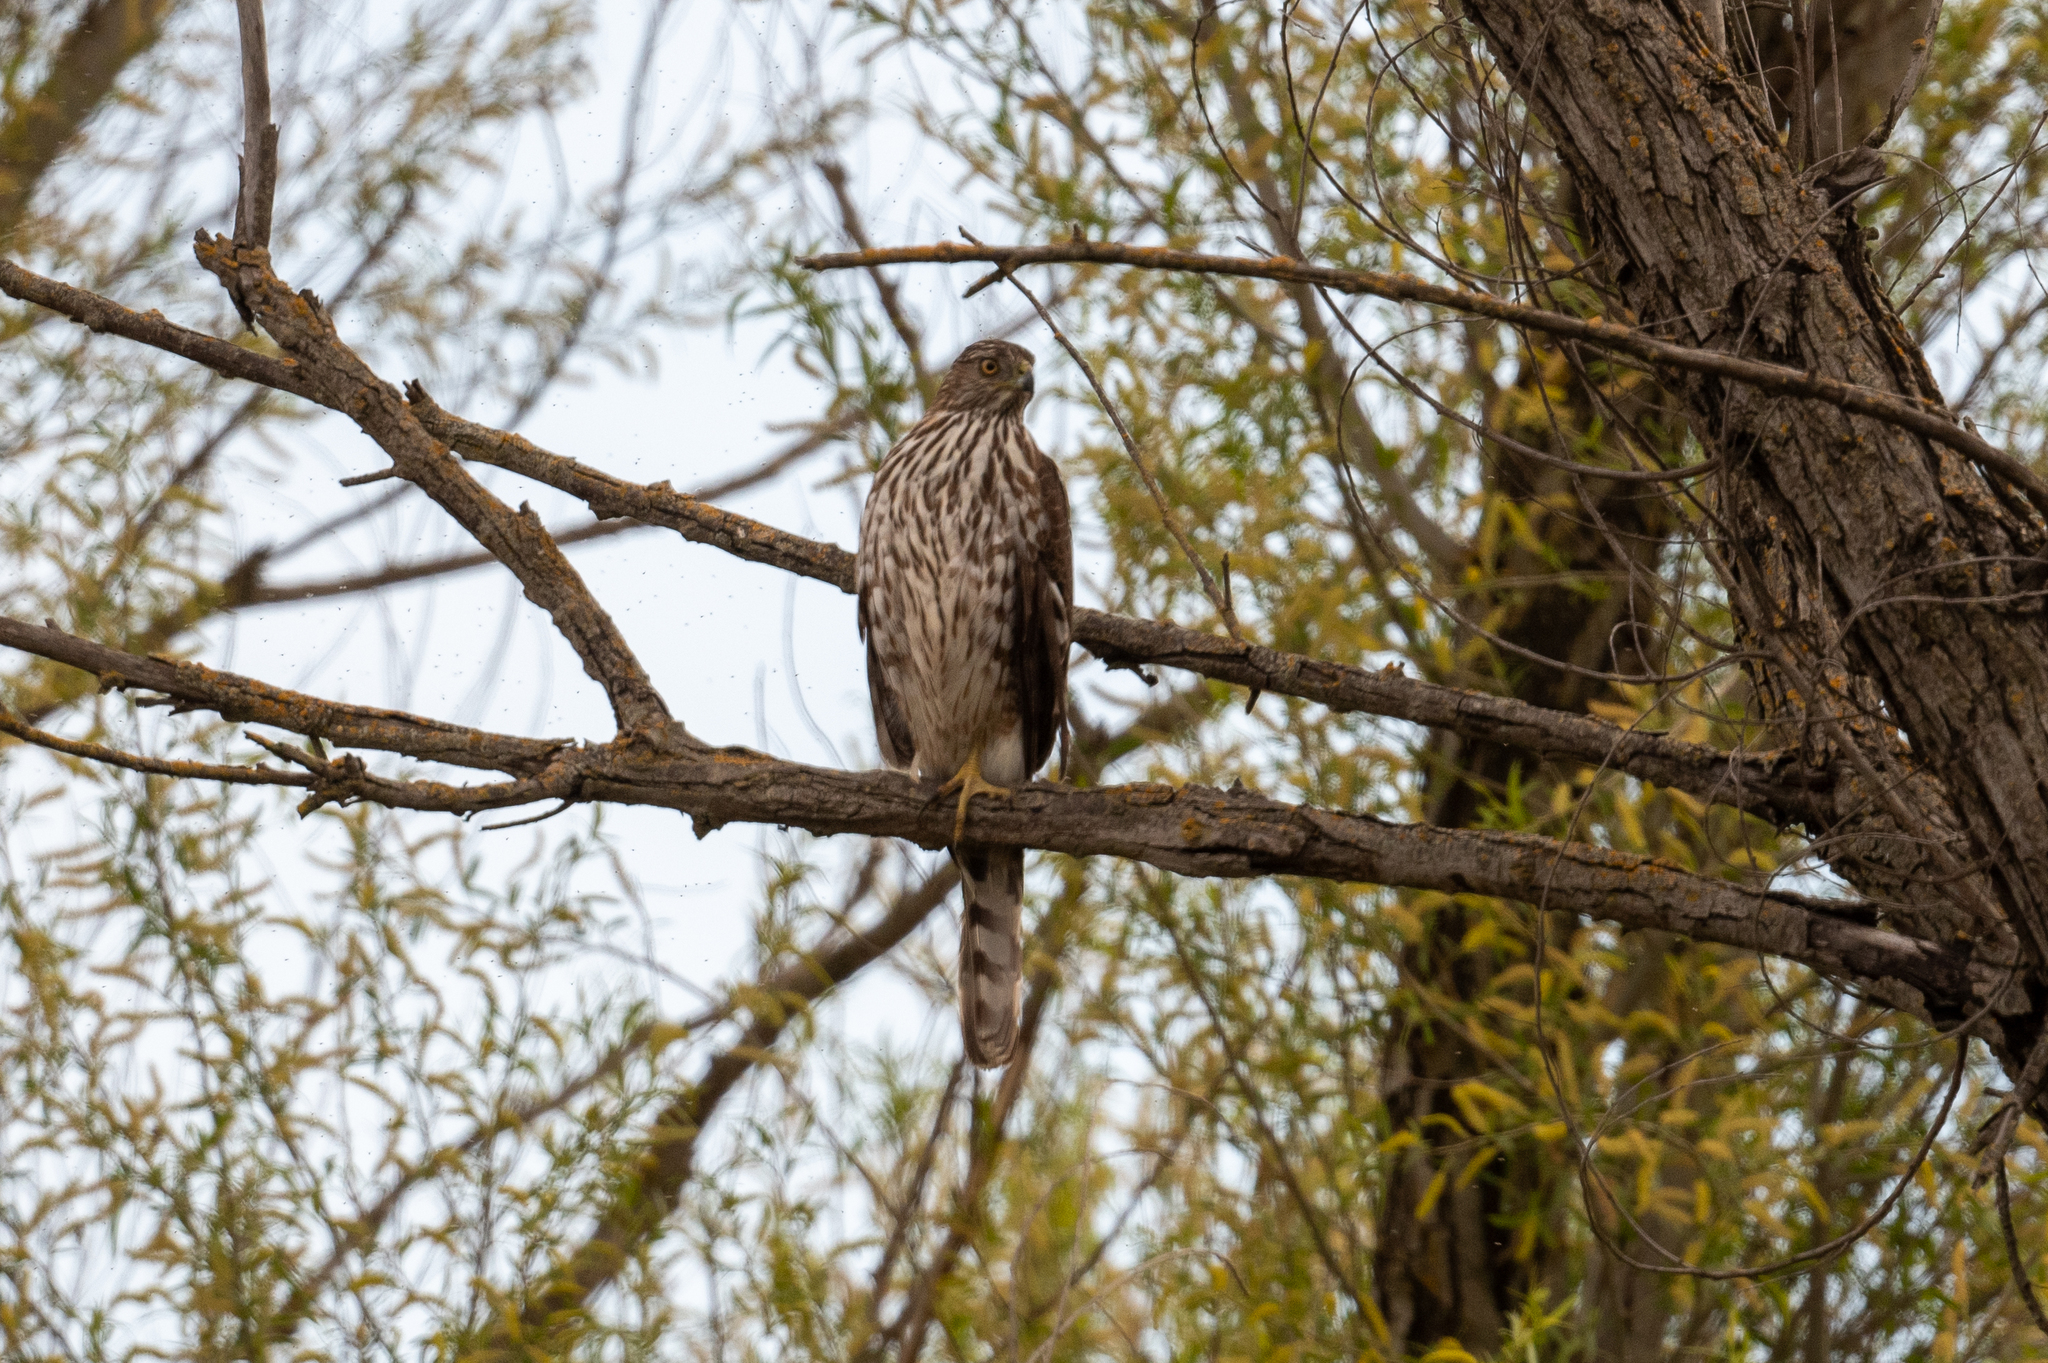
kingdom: Animalia
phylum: Chordata
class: Aves
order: Accipitriformes
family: Accipitridae
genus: Accipiter
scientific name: Accipiter cooperii
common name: Cooper's hawk
